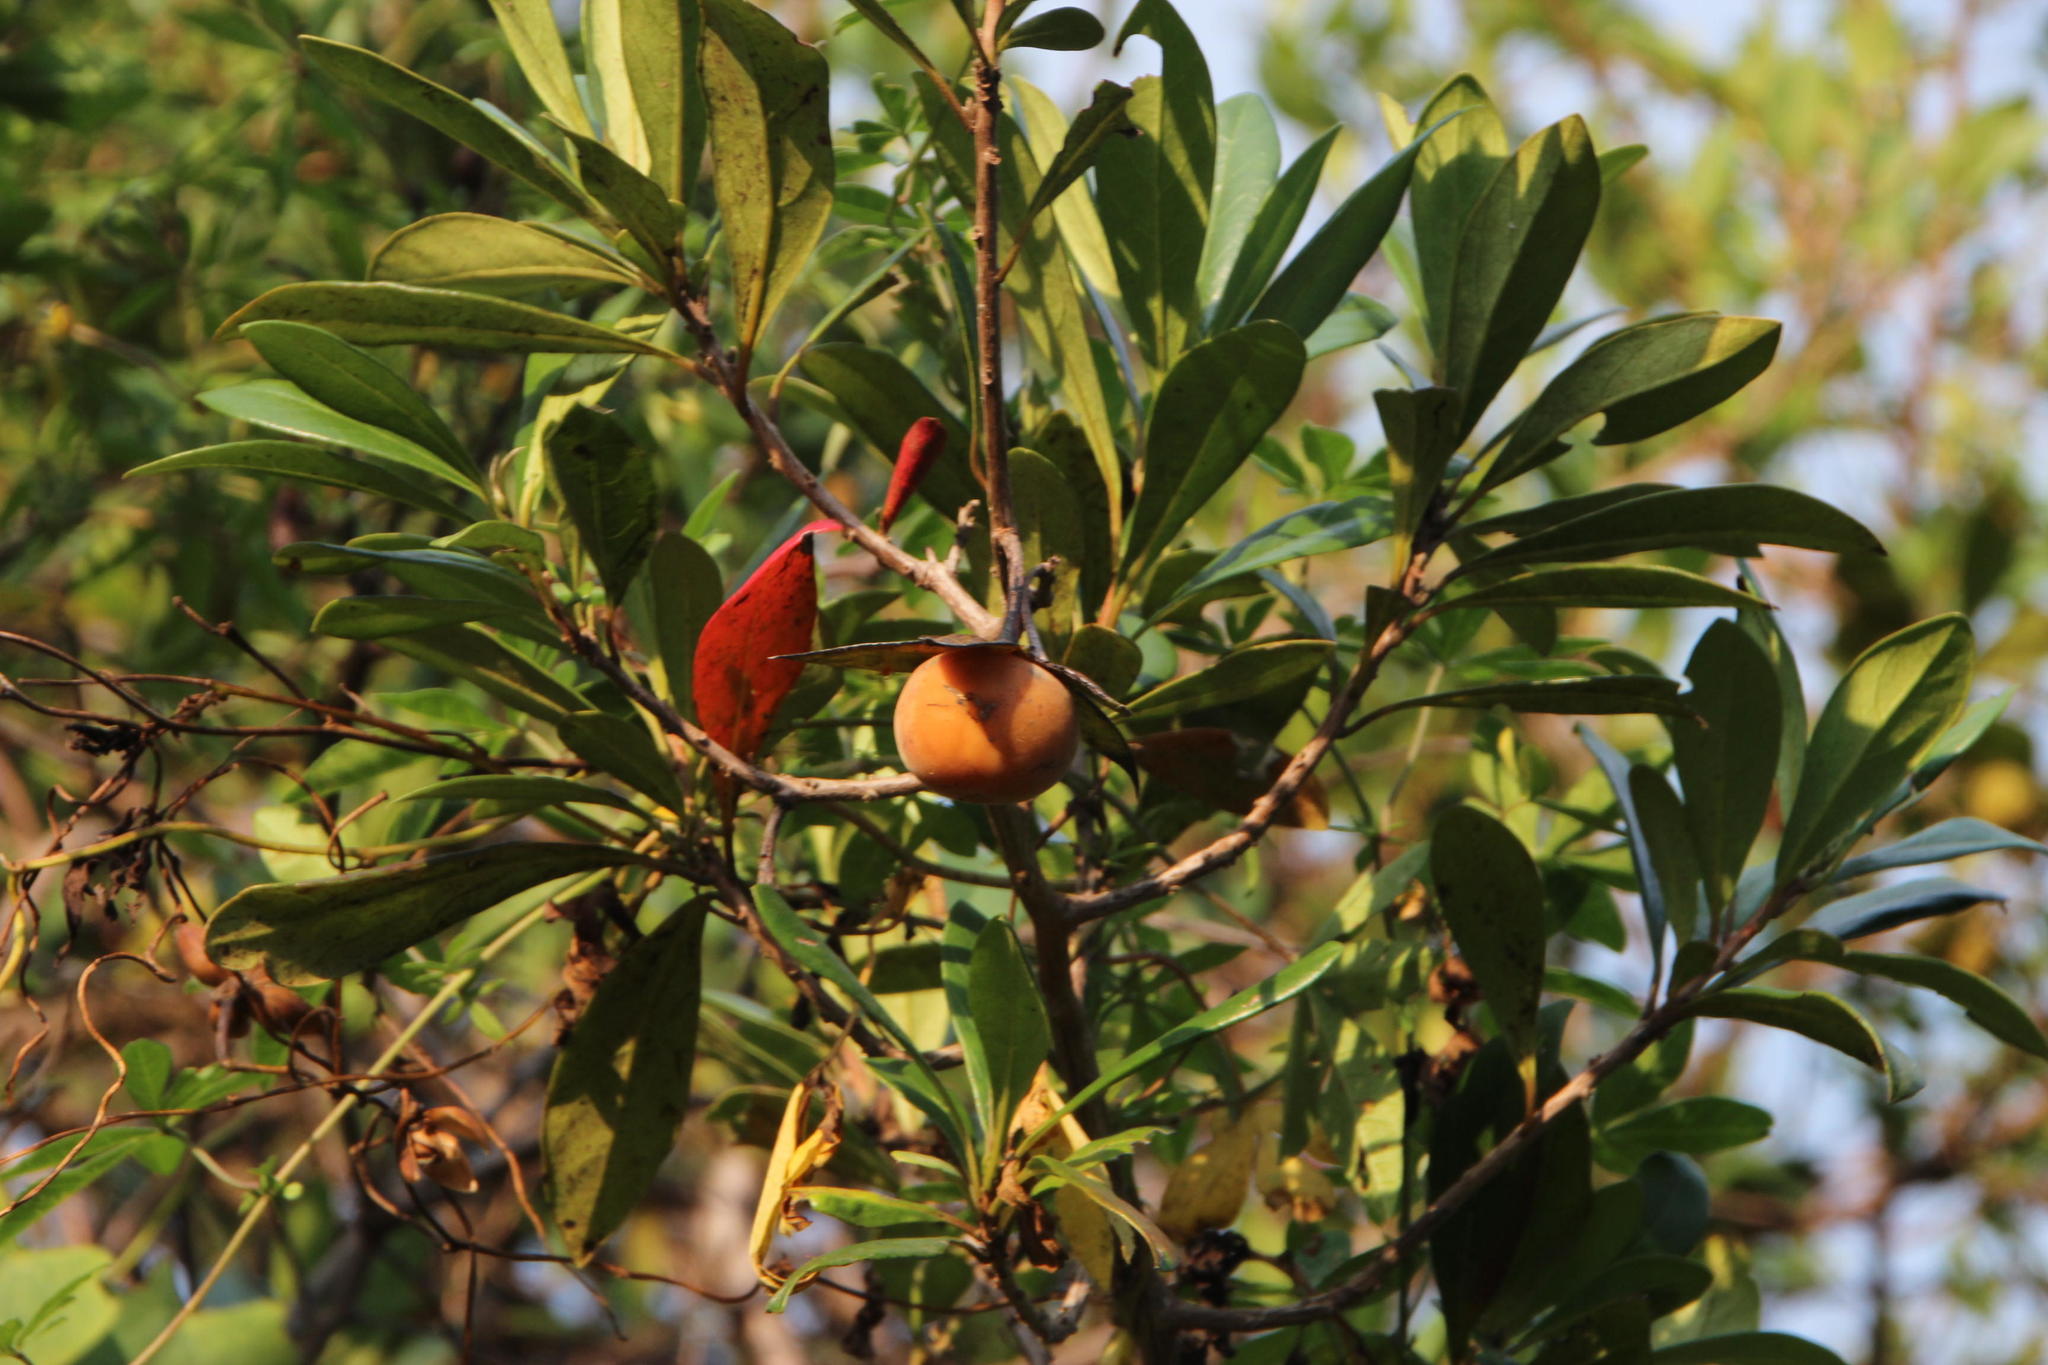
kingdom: Plantae
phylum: Tracheophyta
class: Magnoliopsida
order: Ericales
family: Ebenaceae
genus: Diospyros
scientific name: Diospyros dichrophylla
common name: Common star-apple
